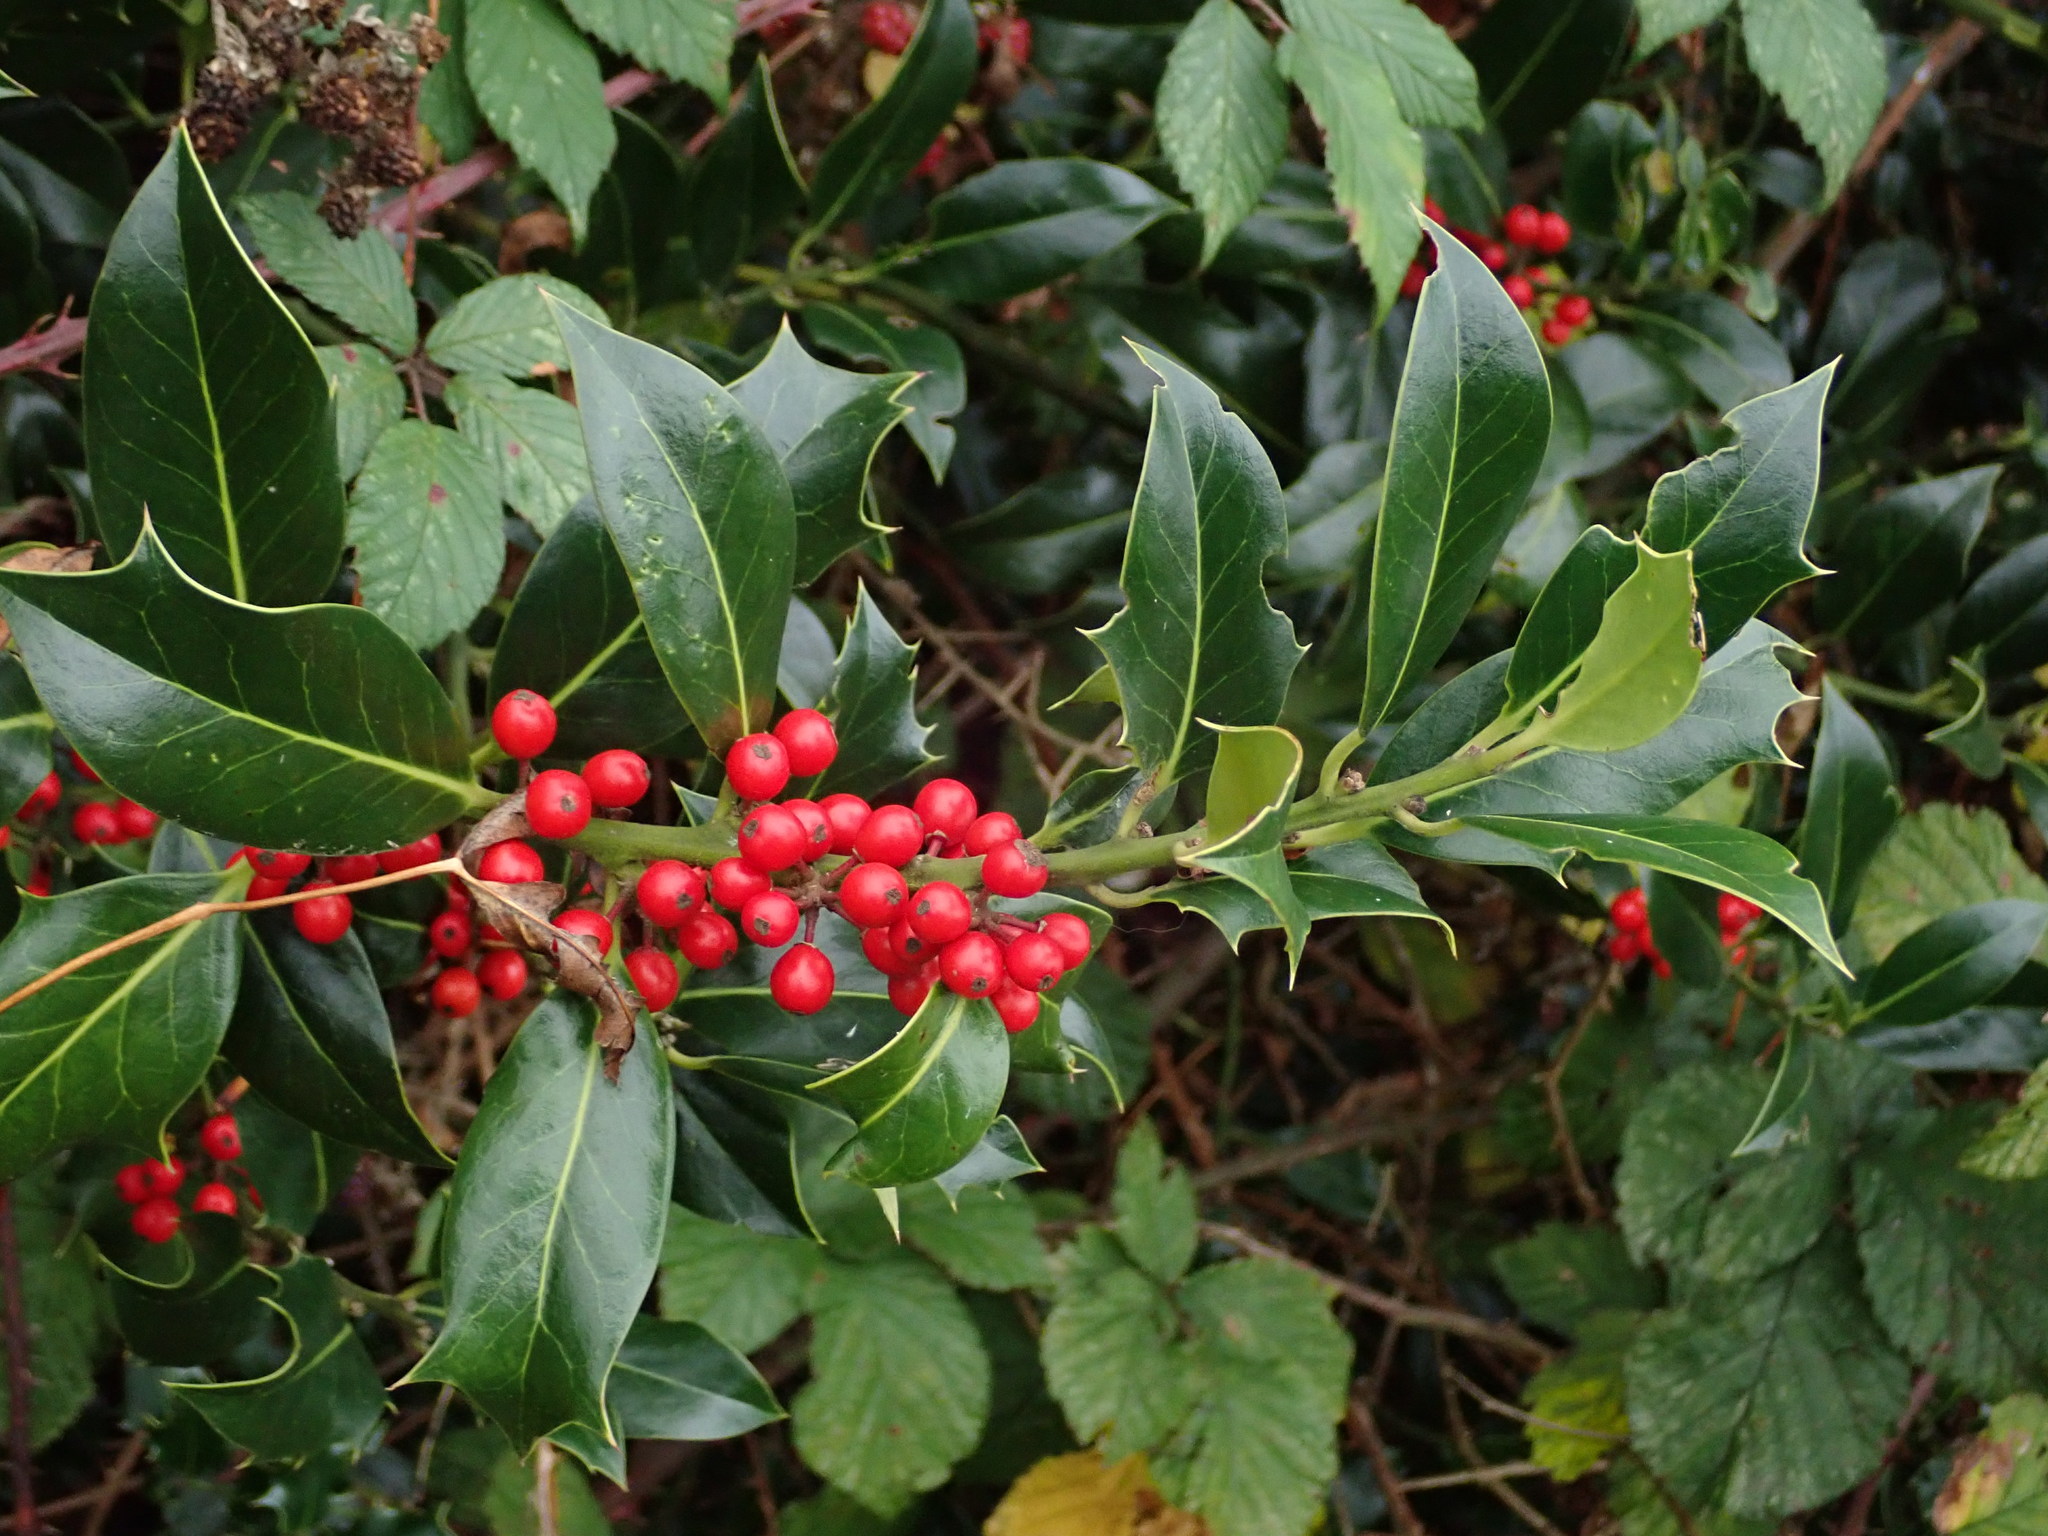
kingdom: Plantae
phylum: Tracheophyta
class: Magnoliopsida
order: Aquifoliales
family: Aquifoliaceae
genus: Ilex
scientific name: Ilex aquifolium
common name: English holly
